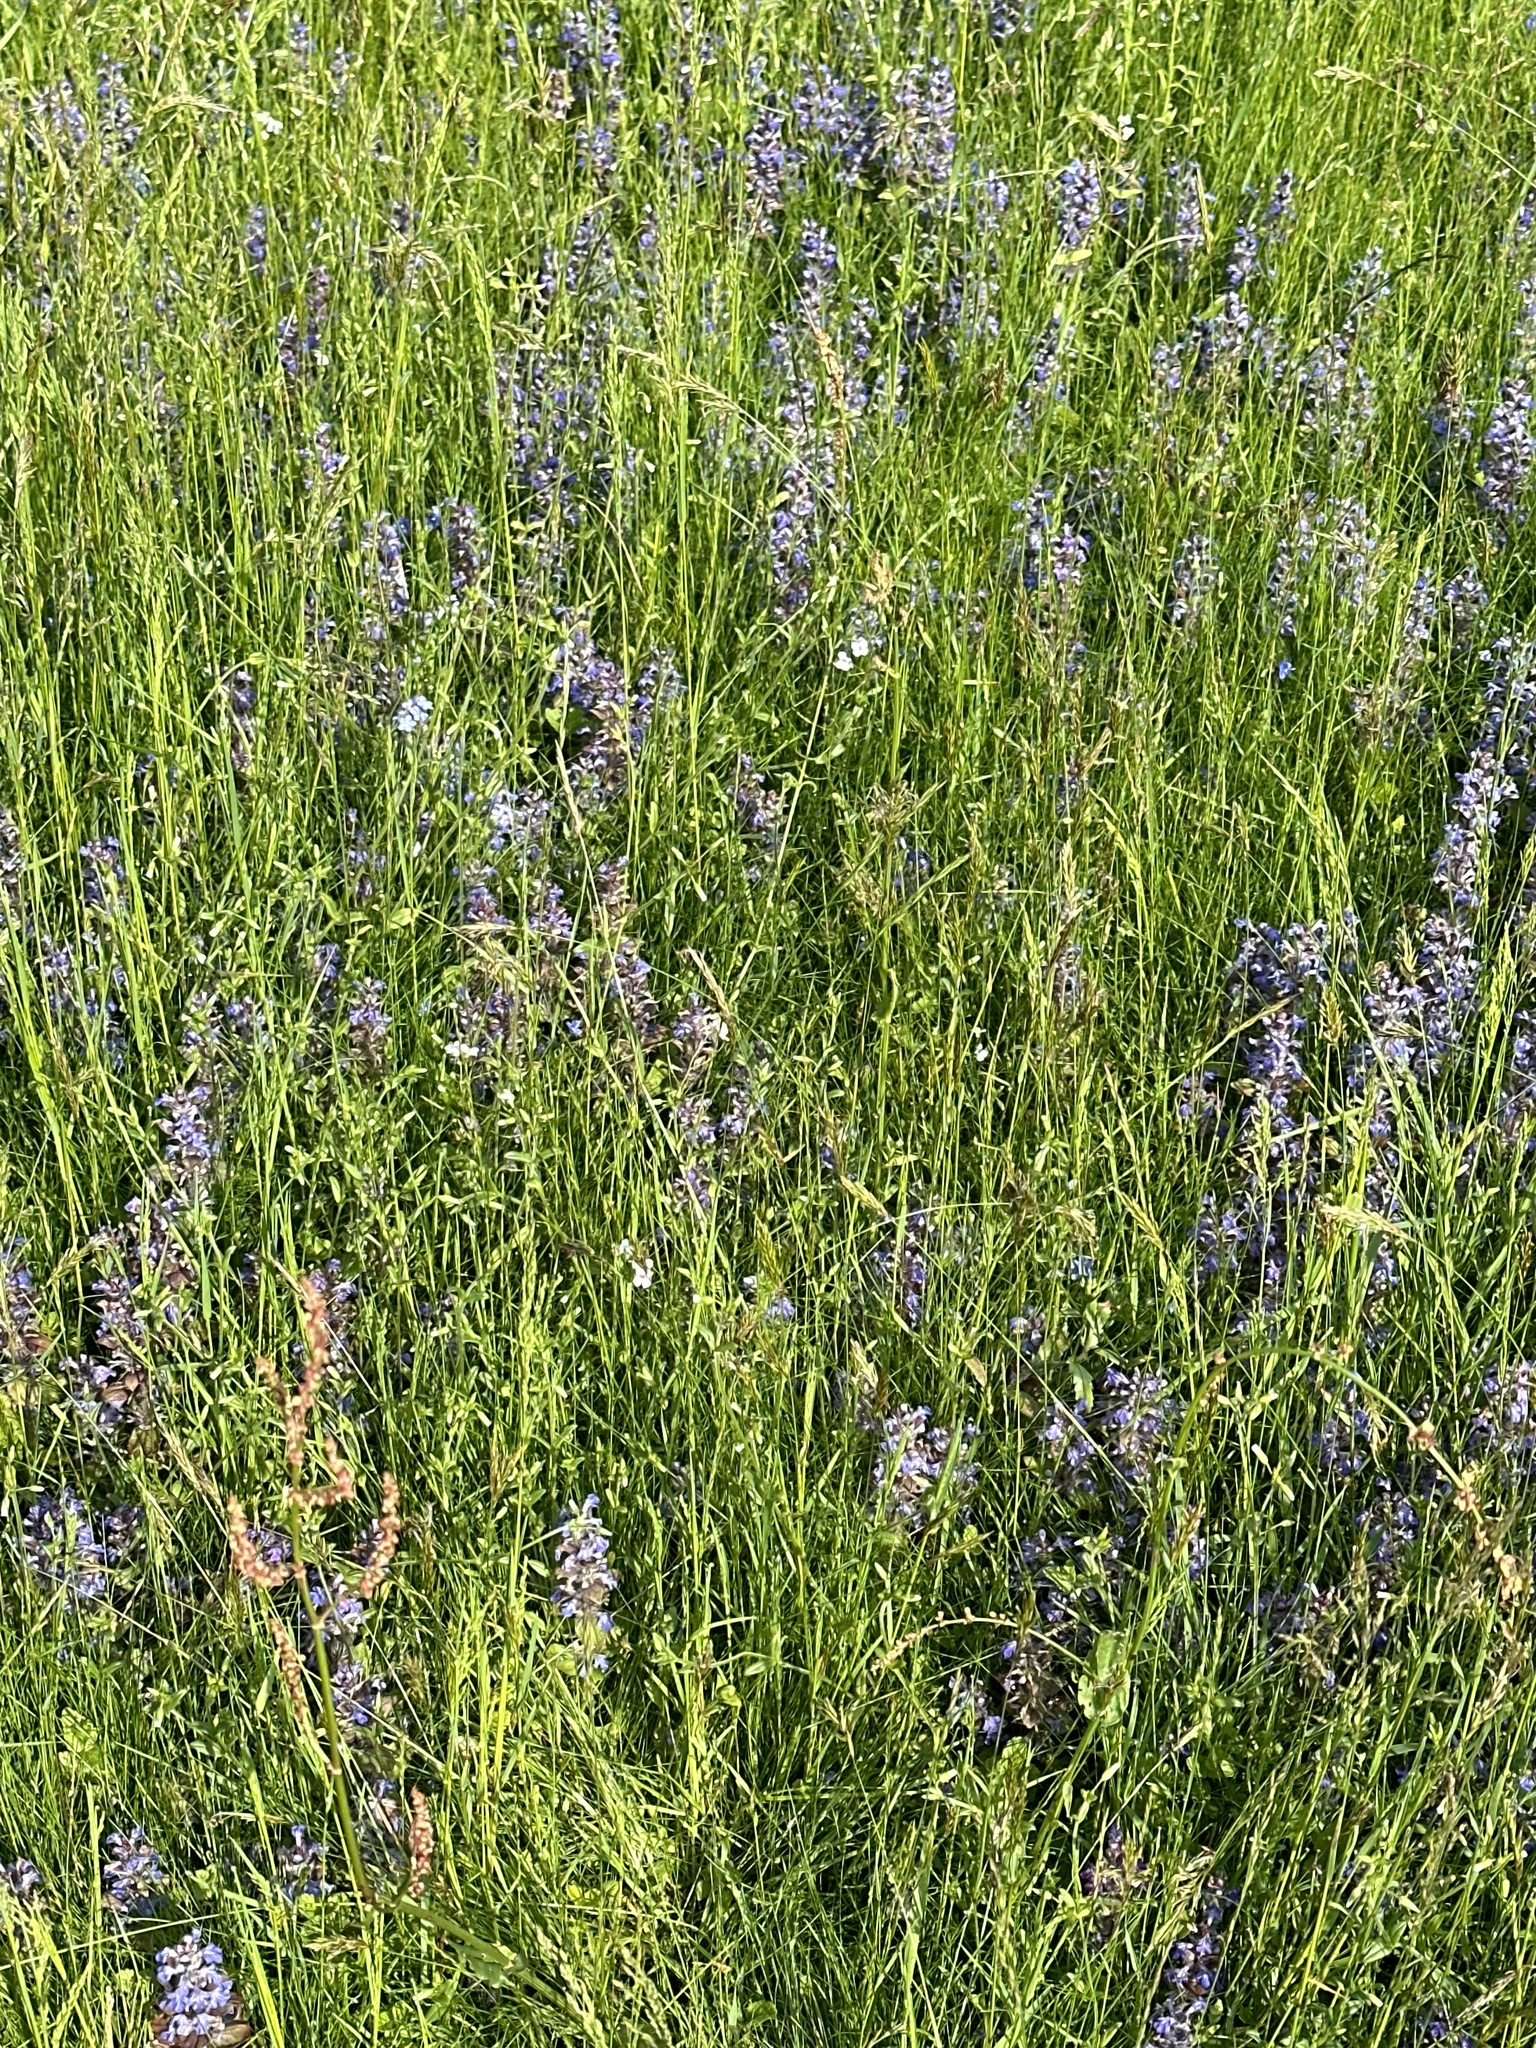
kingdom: Plantae
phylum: Tracheophyta
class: Magnoliopsida
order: Lamiales
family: Lamiaceae
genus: Ajuga
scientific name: Ajuga reptans
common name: Bugle
